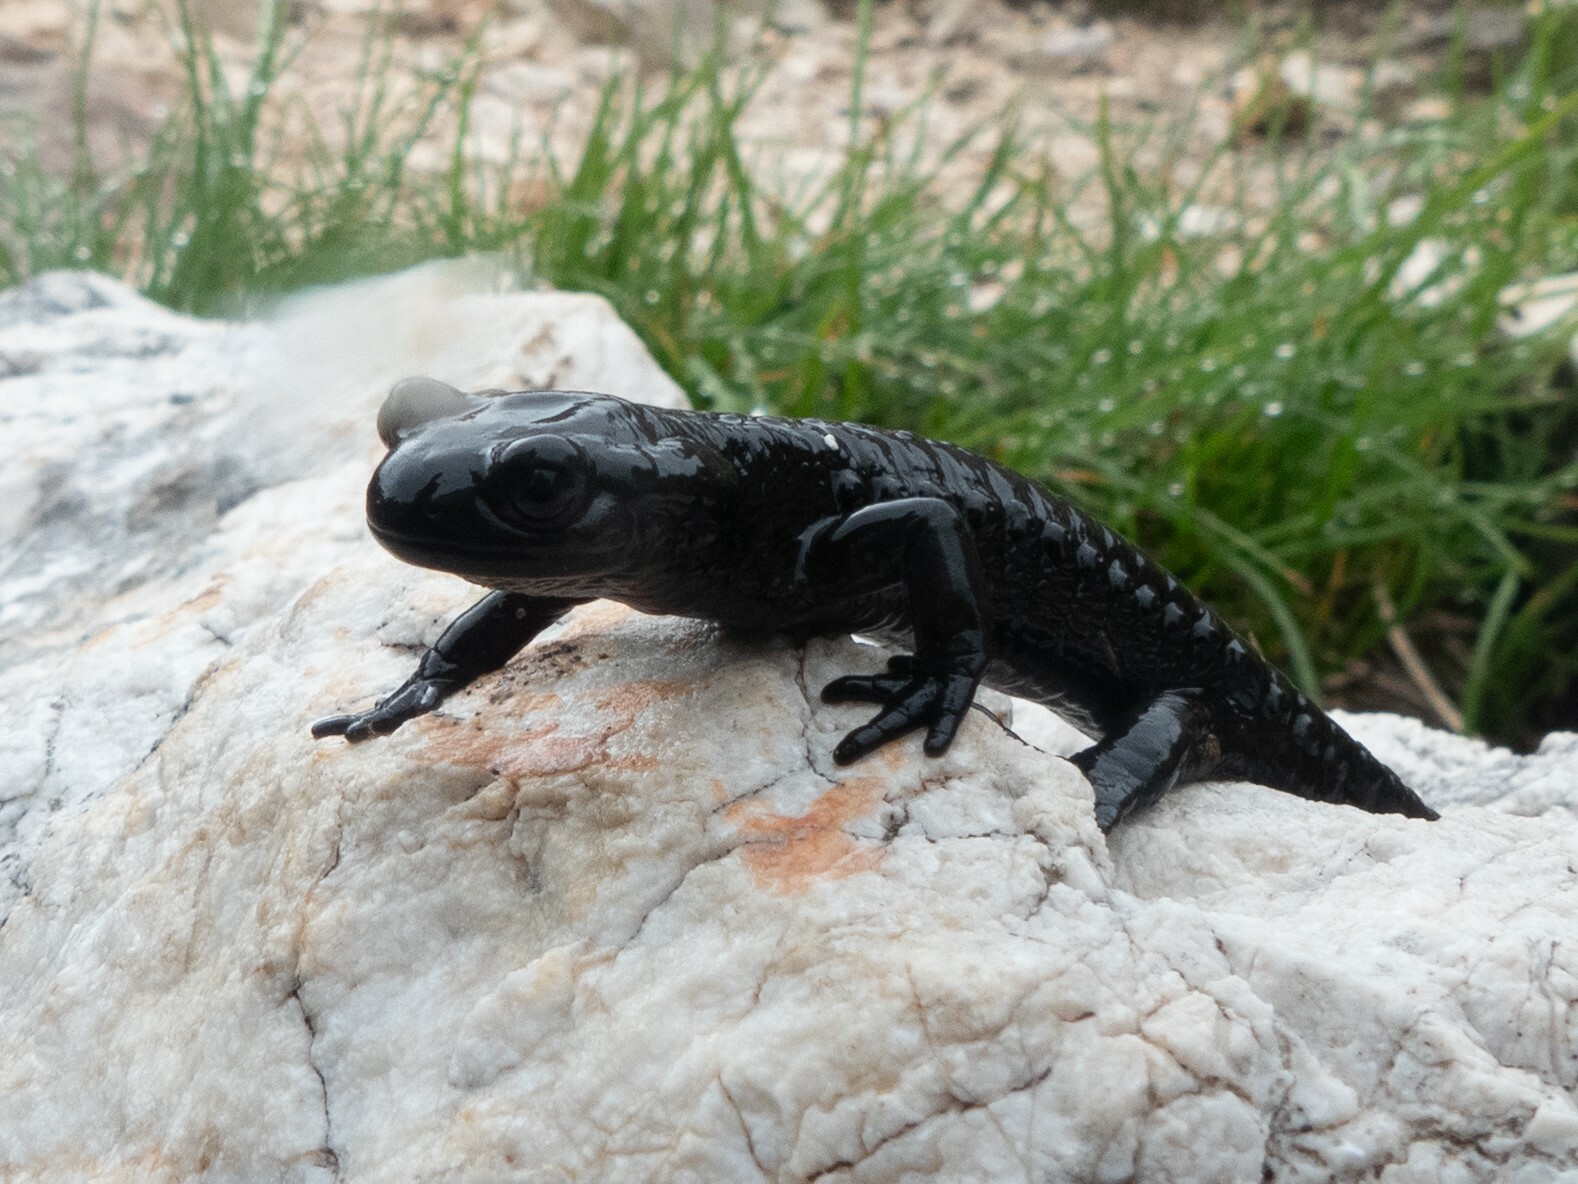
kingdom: Animalia
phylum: Chordata
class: Amphibia
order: Caudata
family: Salamandridae
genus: Salamandra
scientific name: Salamandra atra
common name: Alpine salamander
